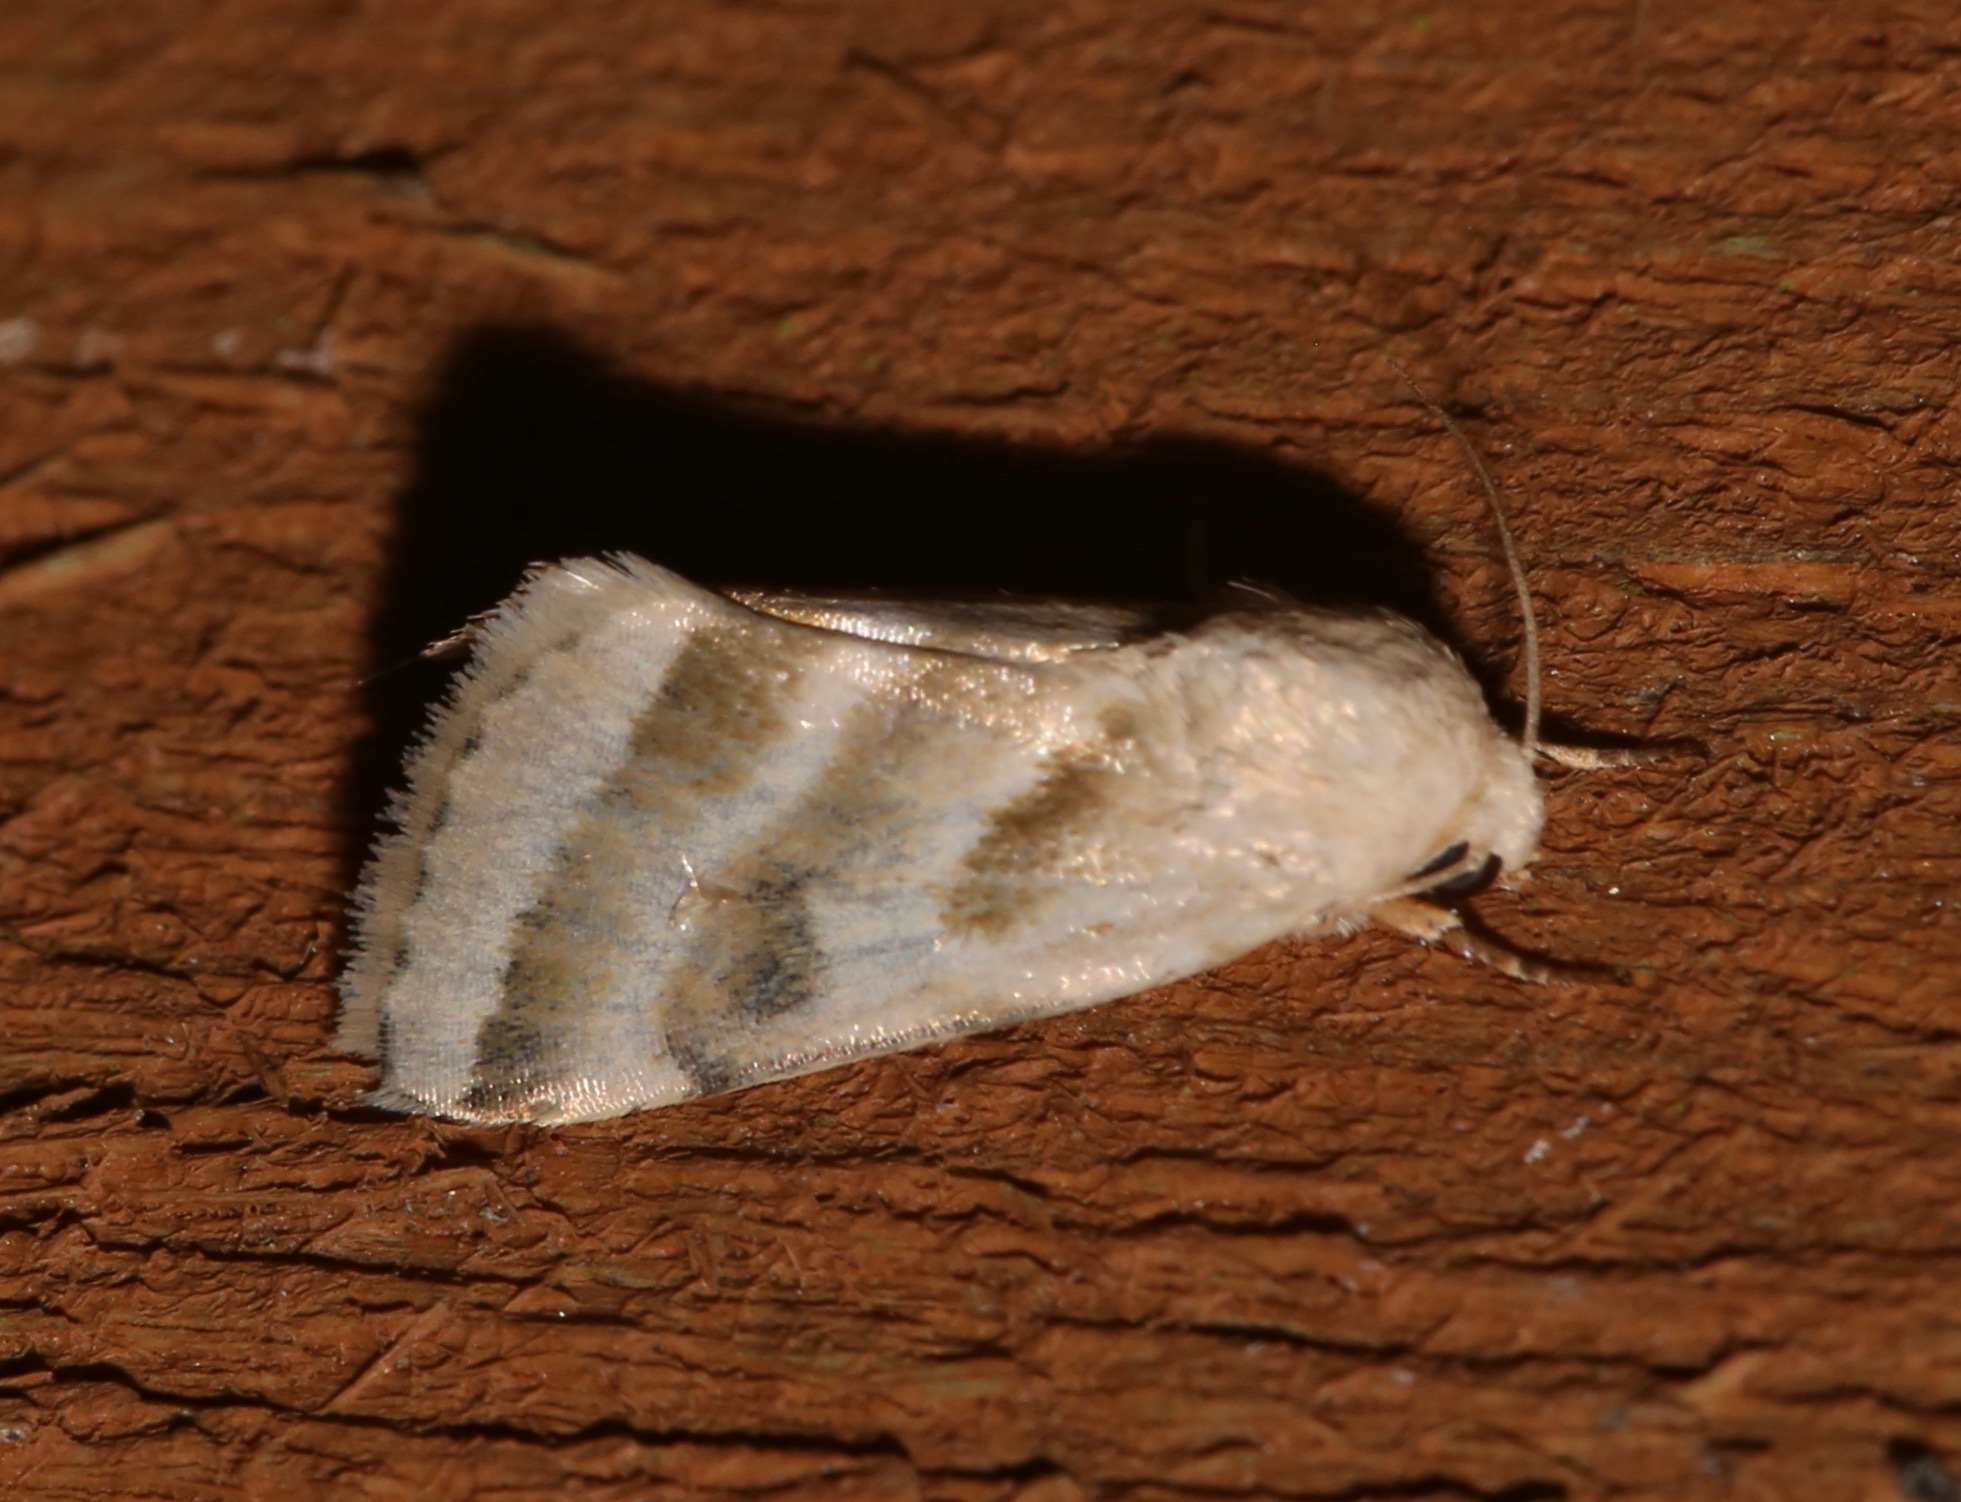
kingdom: Animalia
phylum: Arthropoda
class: Insecta
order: Lepidoptera
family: Noctuidae
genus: Schinia
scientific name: Schinia trifascia
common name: Three-lined flower moth
